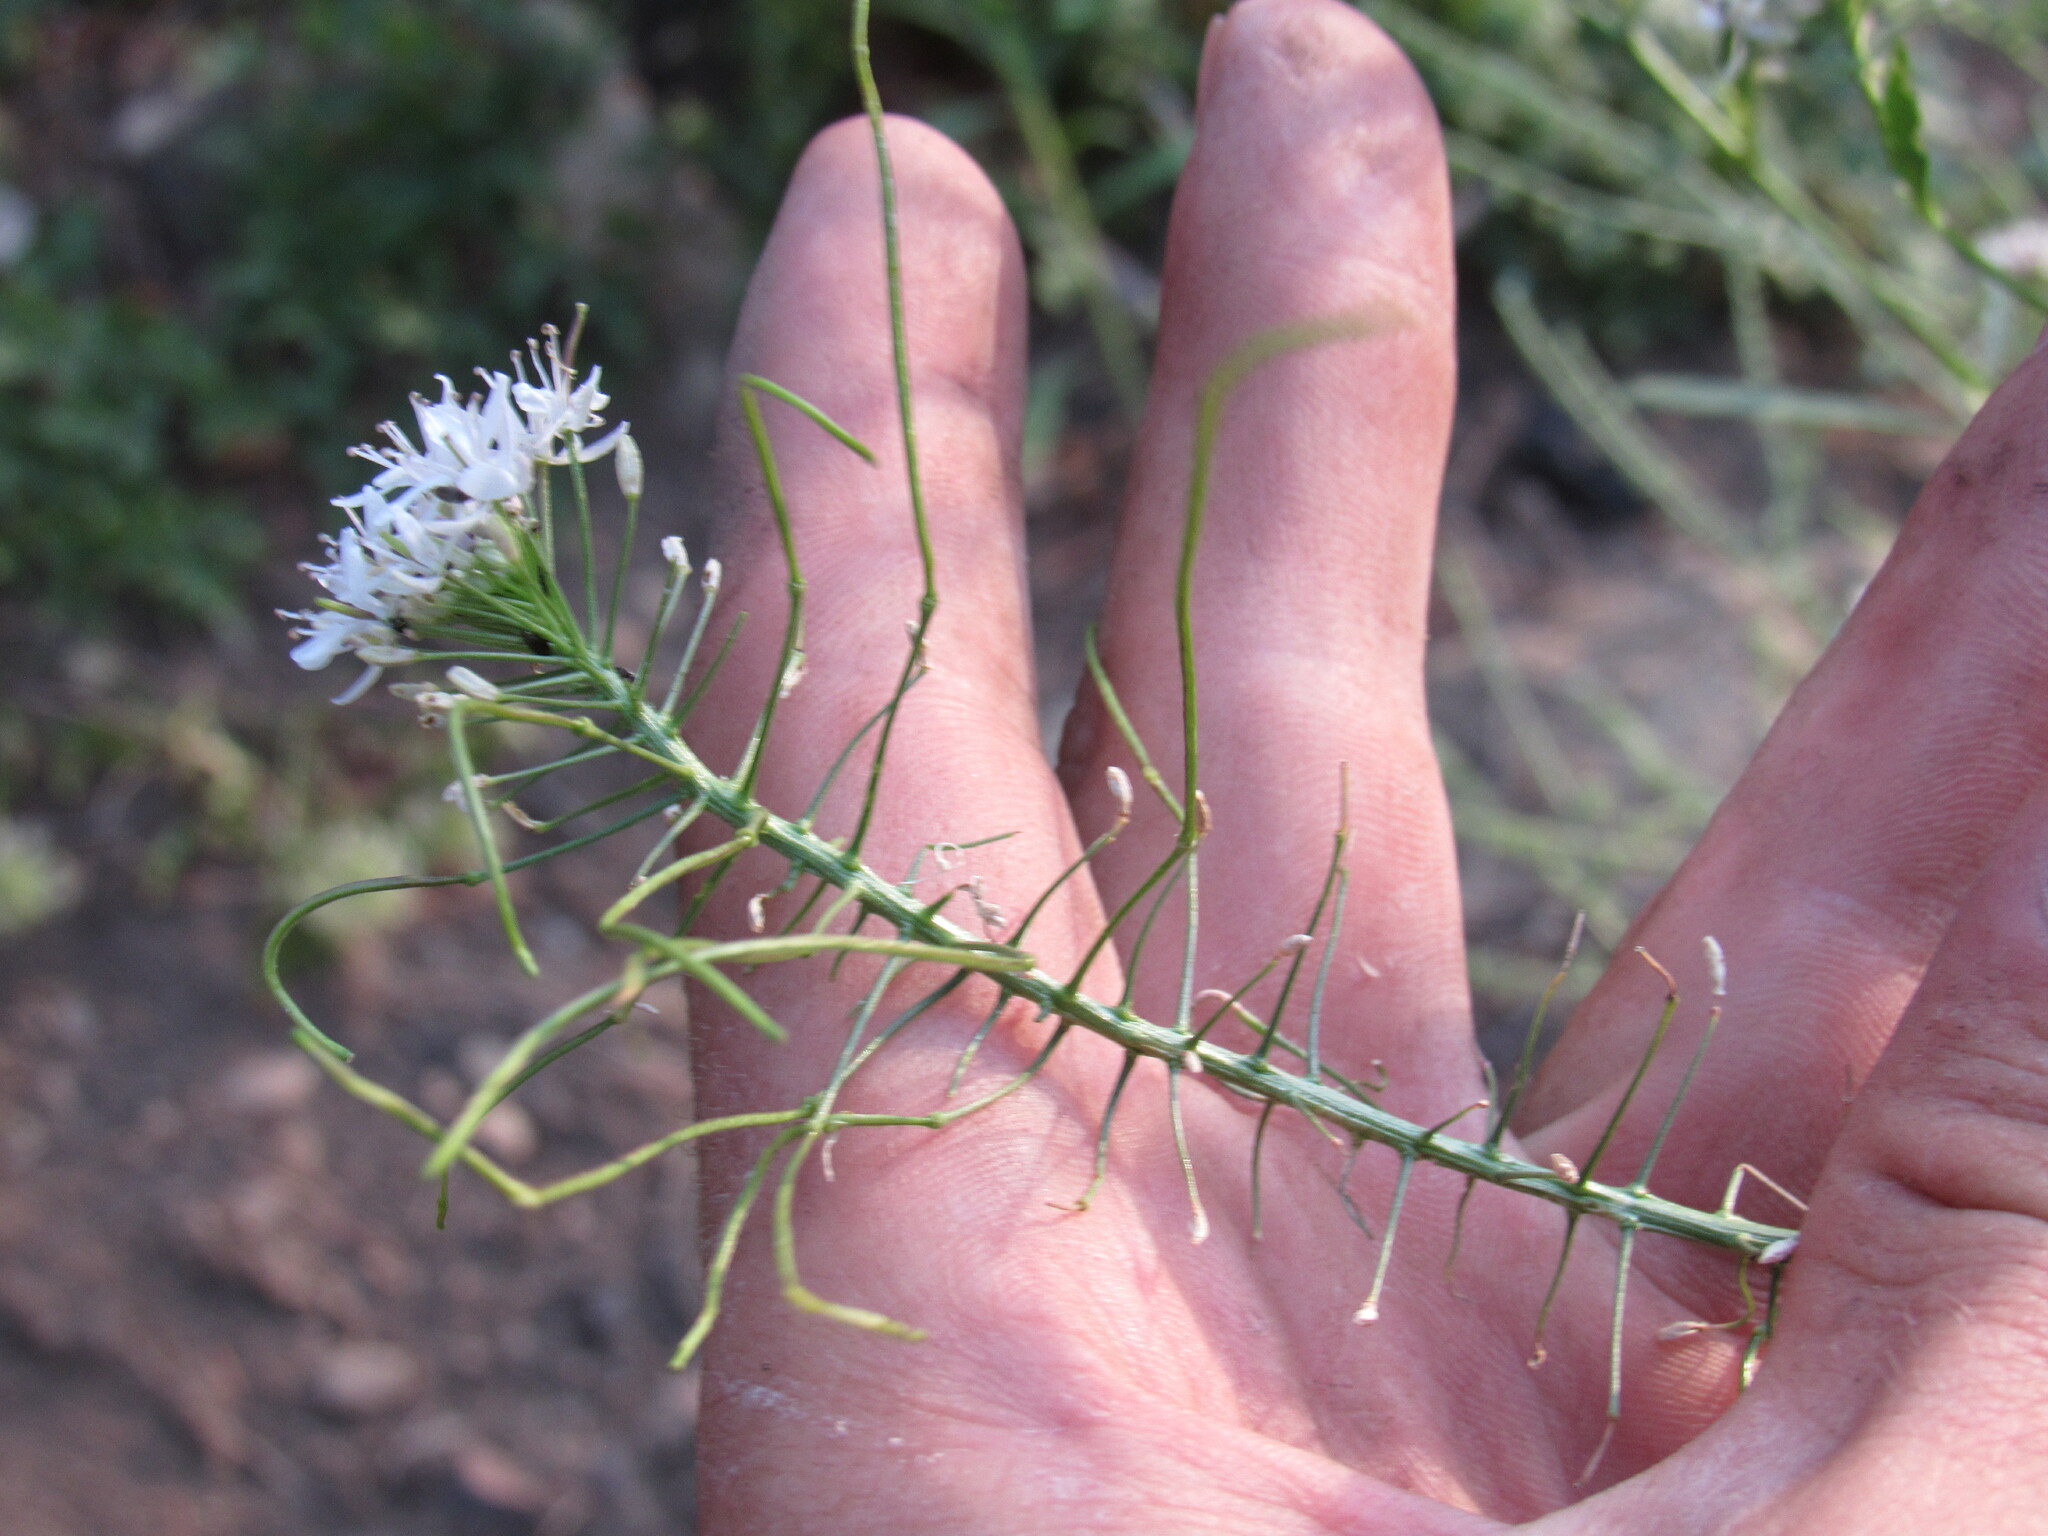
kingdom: Plantae
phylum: Tracheophyta
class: Magnoliopsida
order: Brassicales
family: Brassicaceae
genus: Thelypodium
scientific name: Thelypodium wrightii
